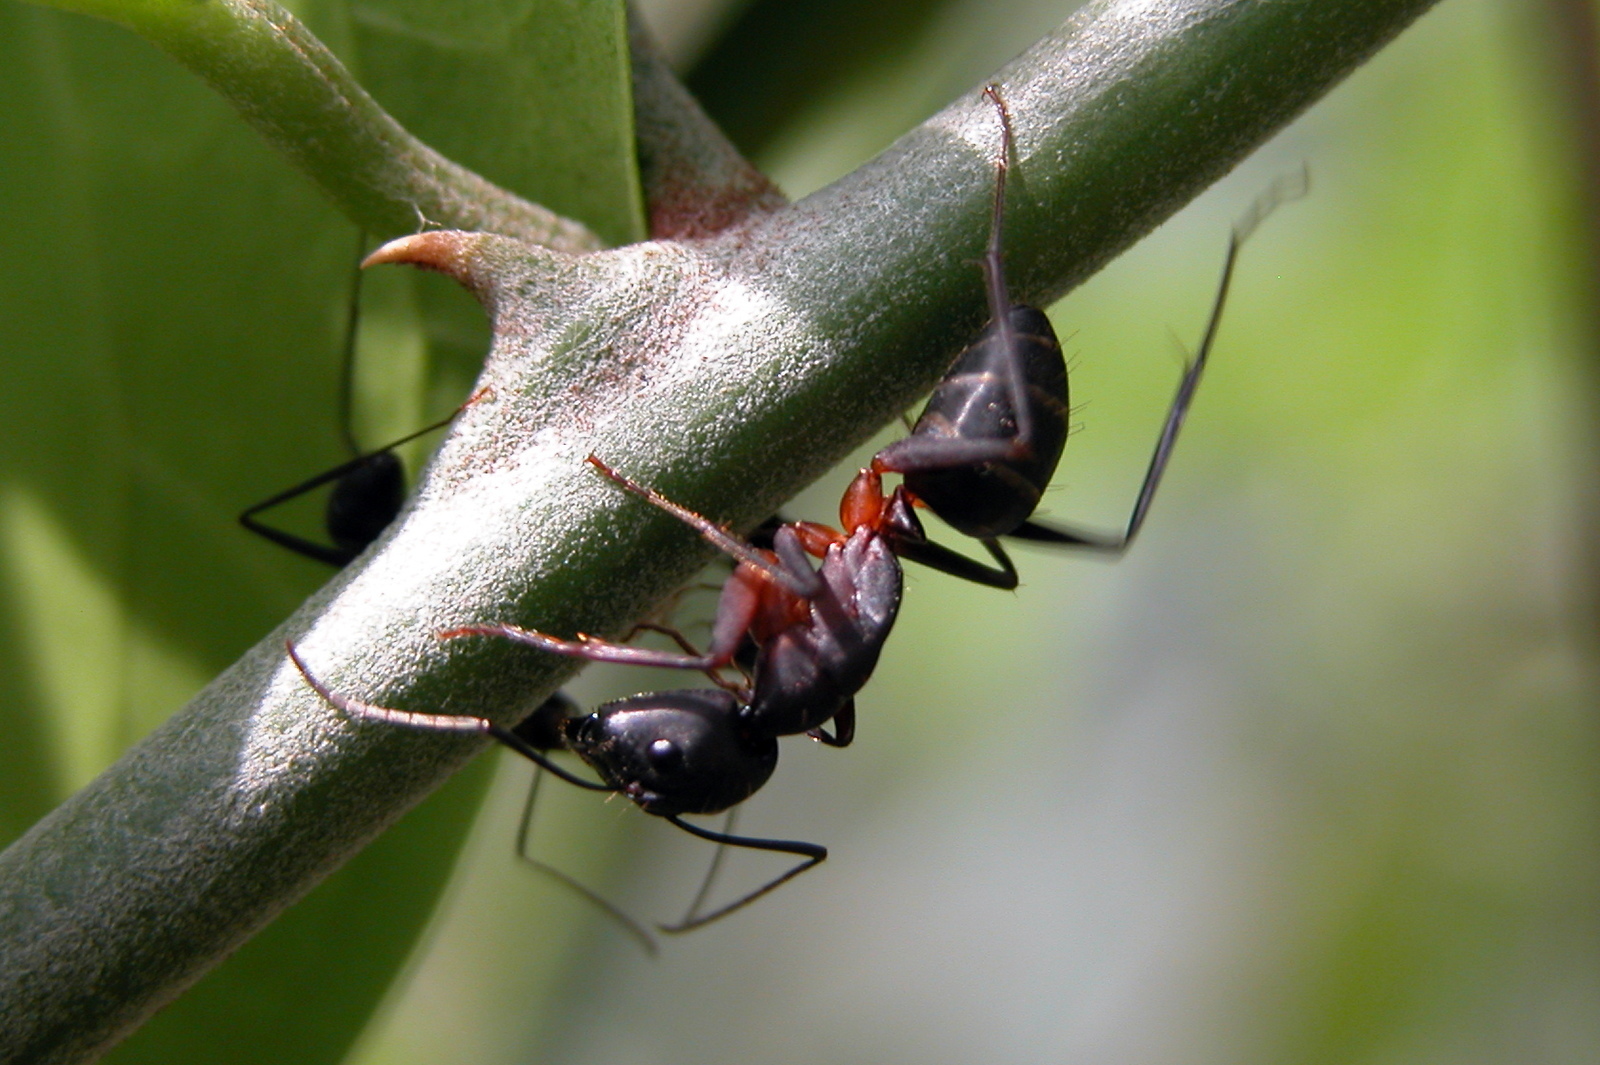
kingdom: Animalia
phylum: Arthropoda
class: Insecta
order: Hymenoptera
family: Formicidae
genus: Camponotus
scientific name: Camponotus compressus
